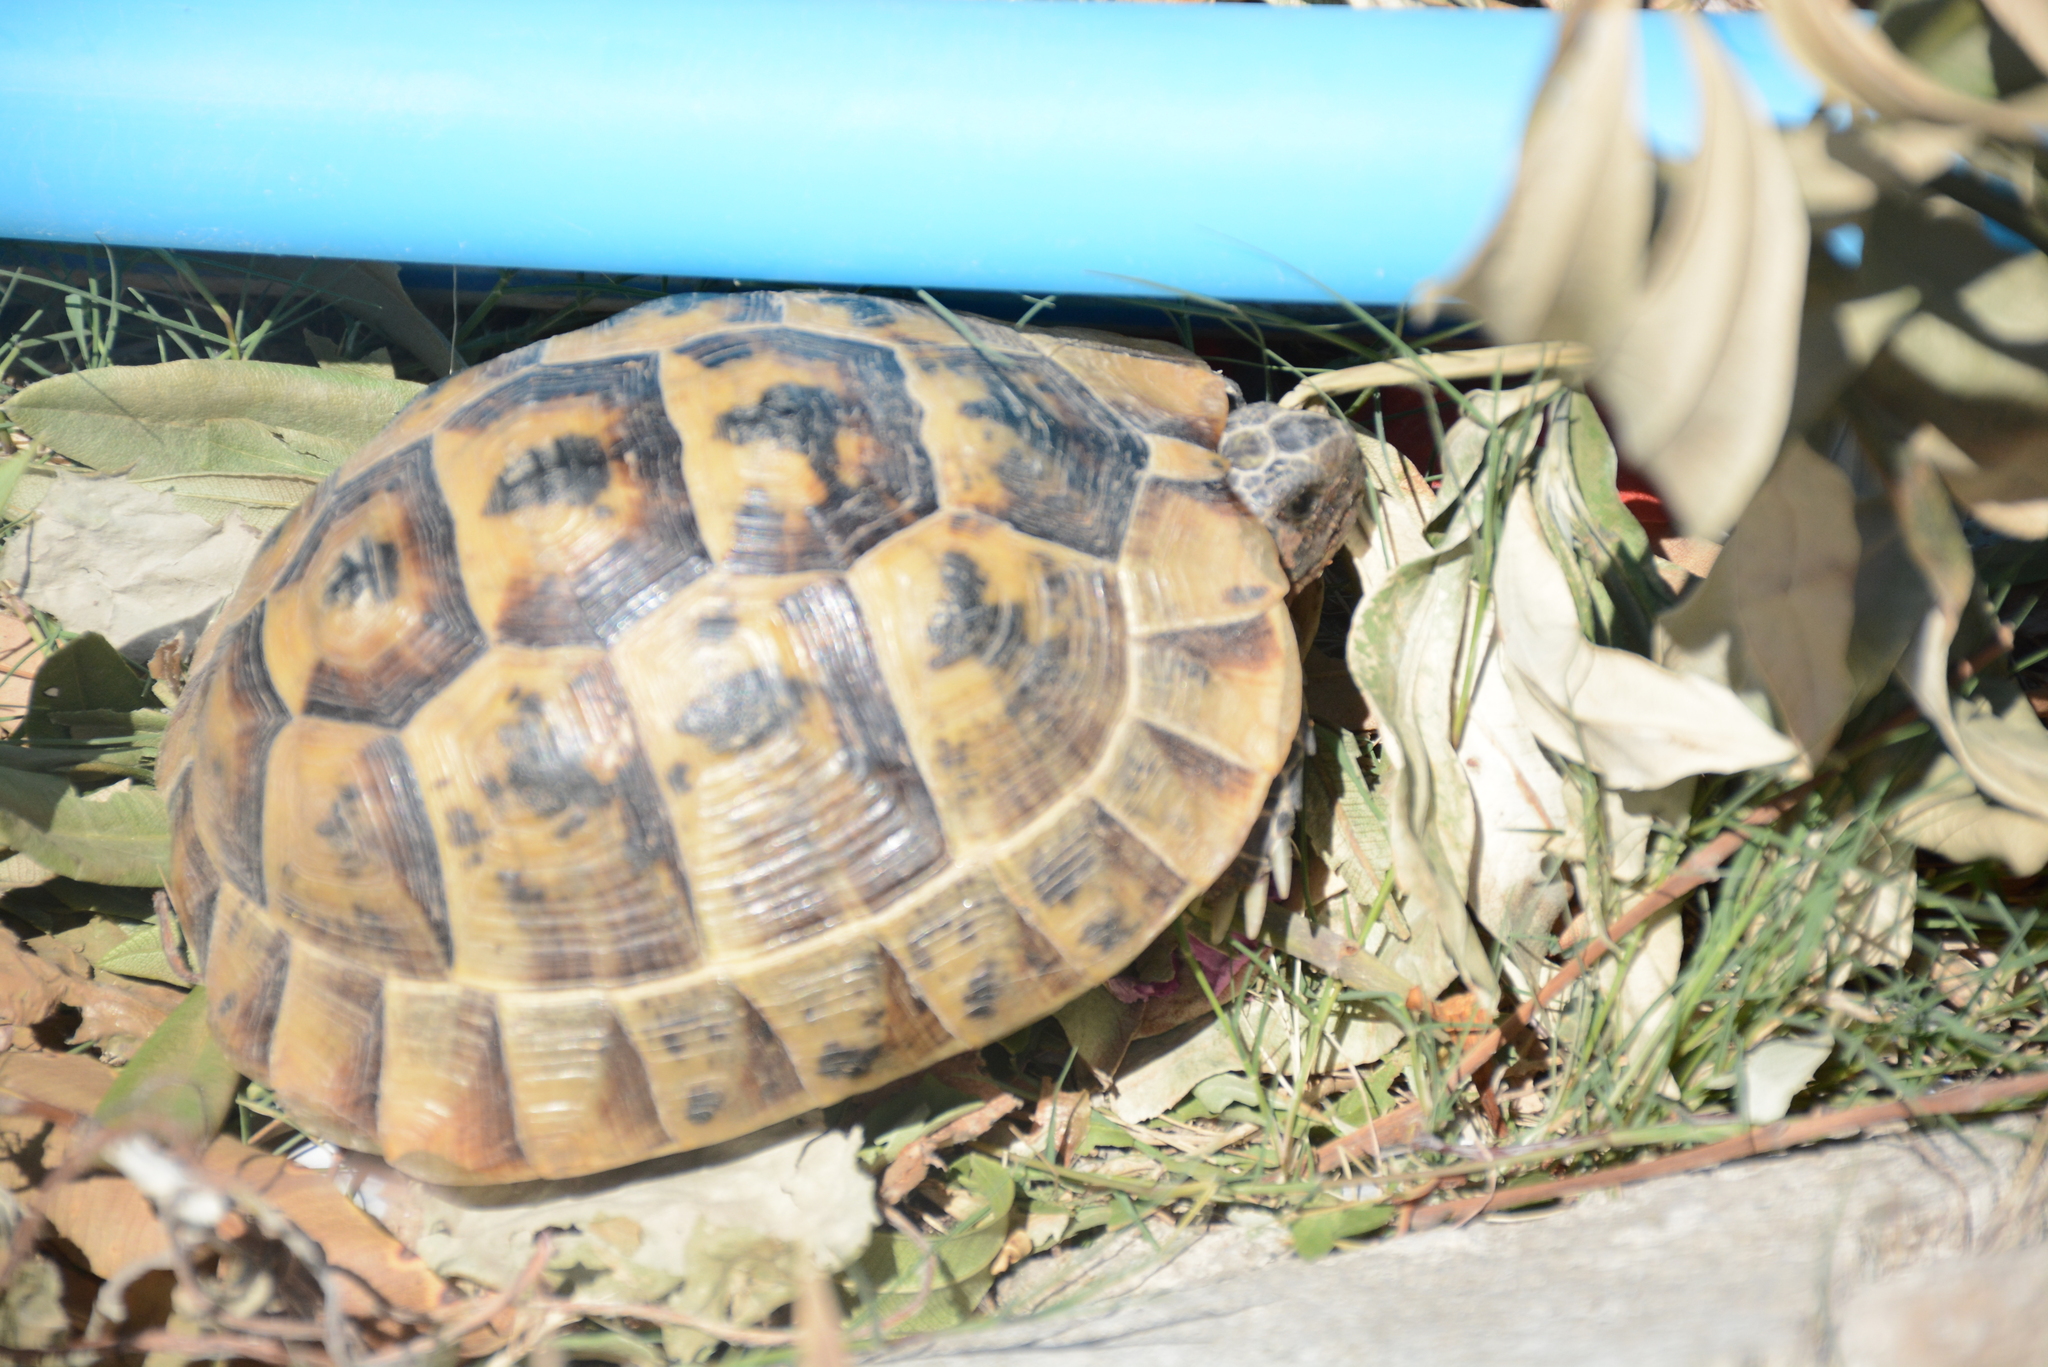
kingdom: Animalia
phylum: Chordata
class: Testudines
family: Testudinidae
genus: Testudo
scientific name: Testudo graeca
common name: Common tortoise
